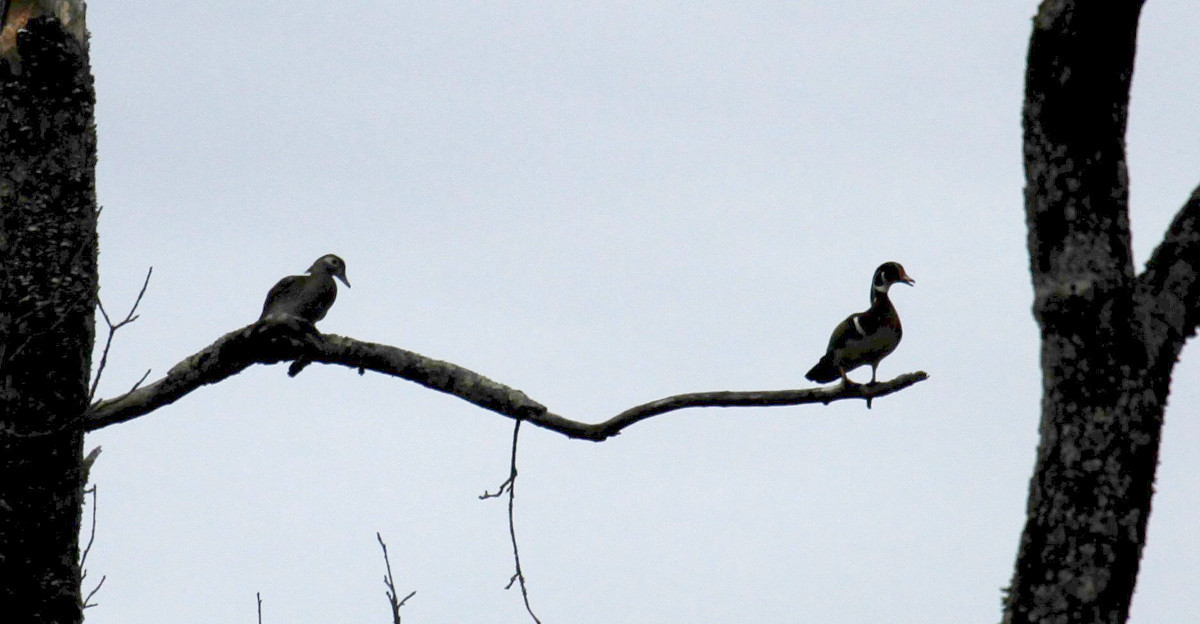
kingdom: Animalia
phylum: Chordata
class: Aves
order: Anseriformes
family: Anatidae
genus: Aix
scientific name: Aix sponsa
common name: Wood duck
